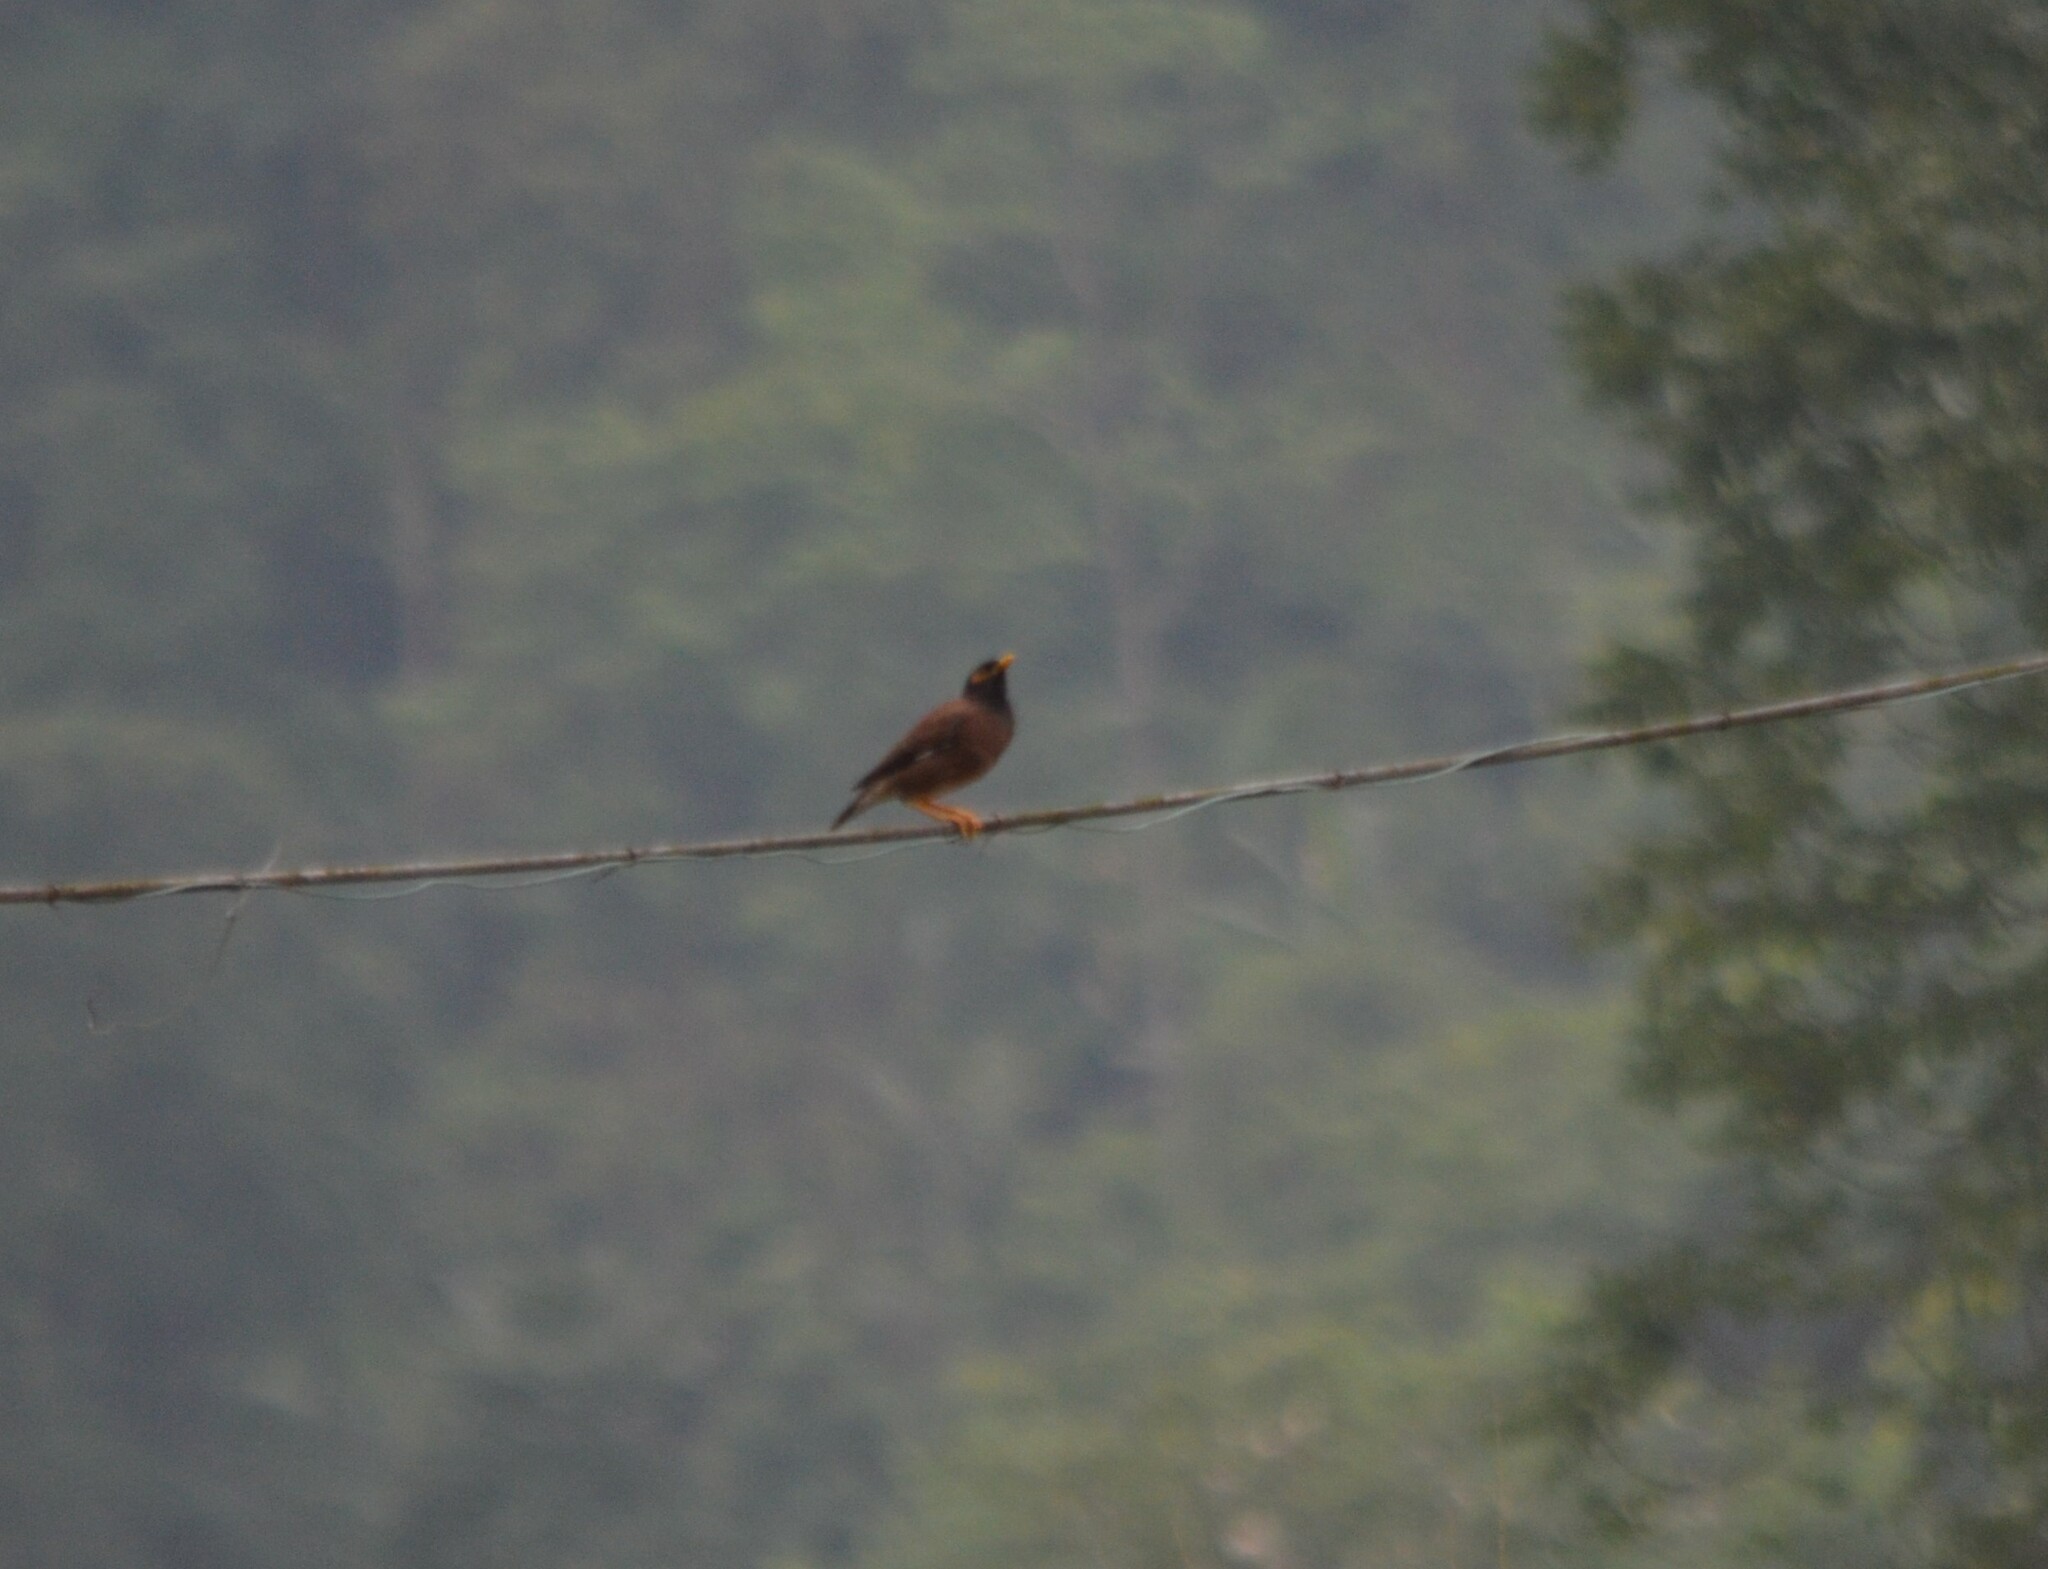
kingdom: Animalia
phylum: Chordata
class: Aves
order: Passeriformes
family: Sturnidae
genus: Acridotheres
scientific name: Acridotheres tristis
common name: Common myna
